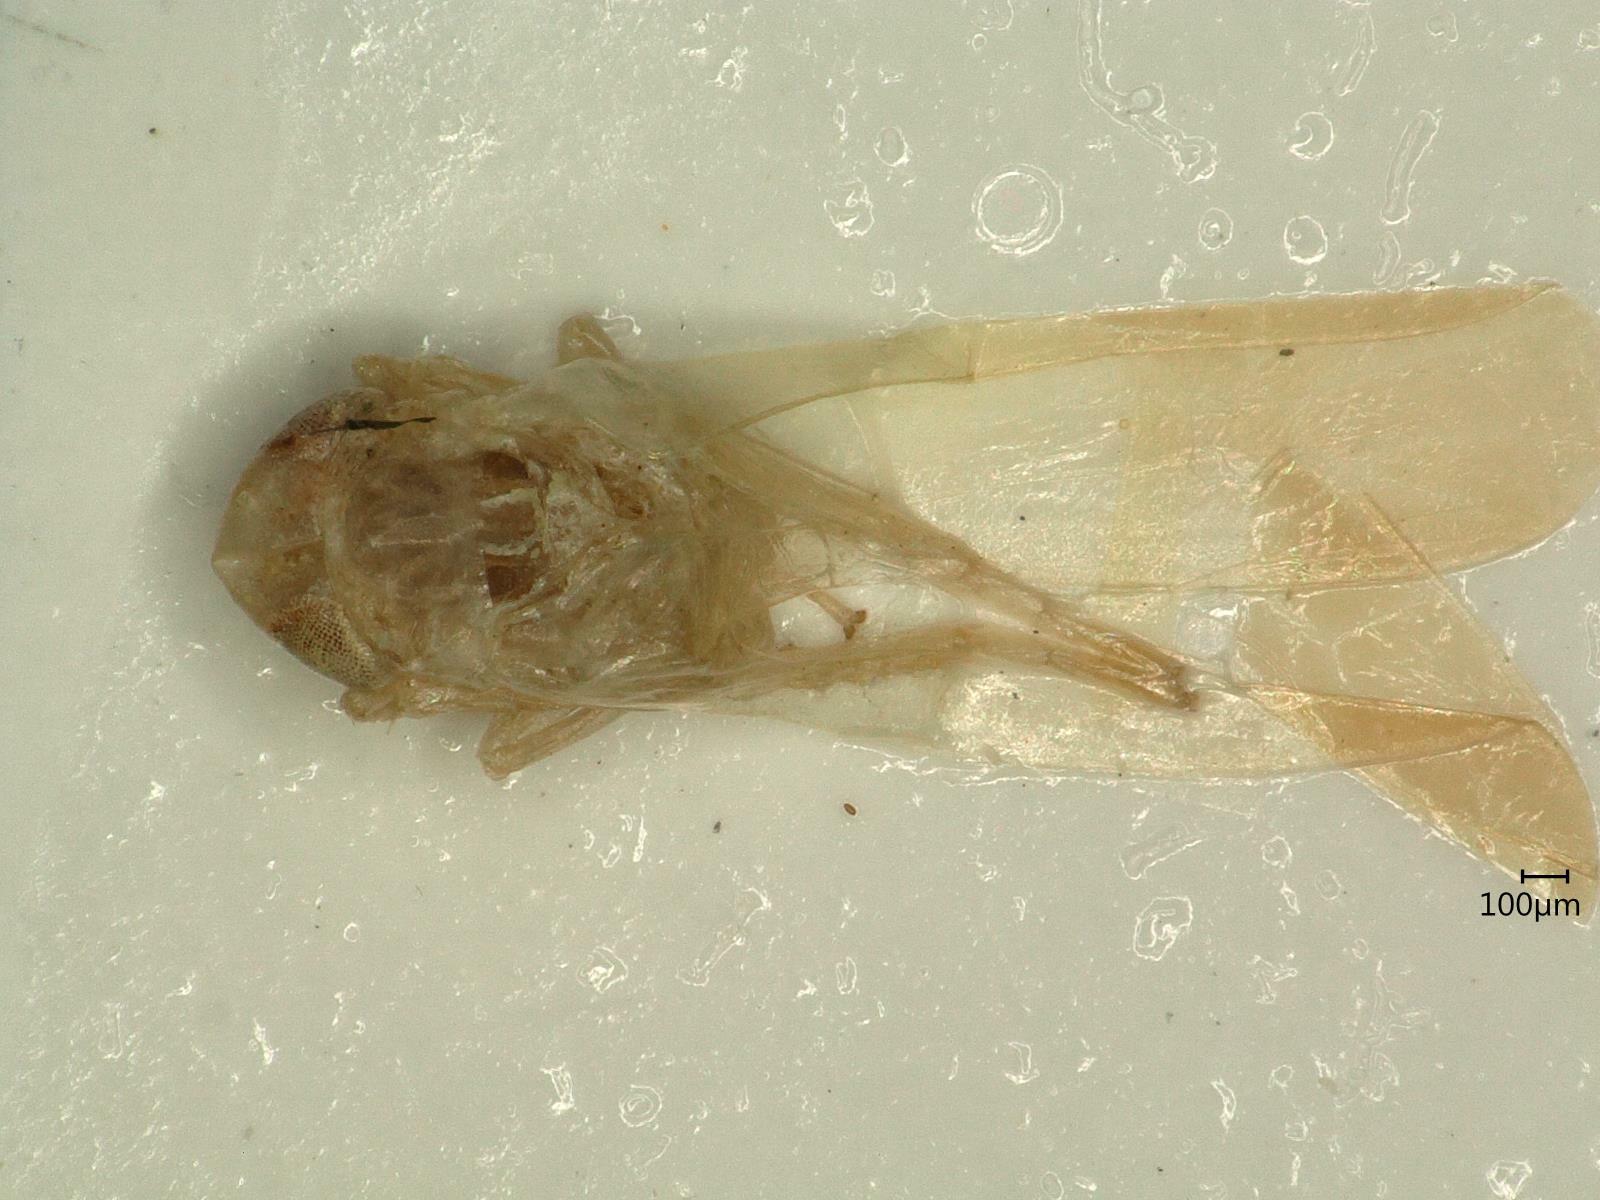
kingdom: Animalia
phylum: Arthropoda
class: Insecta
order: Hemiptera
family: Cicadellidae
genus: Hebata
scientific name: Hebata solani
